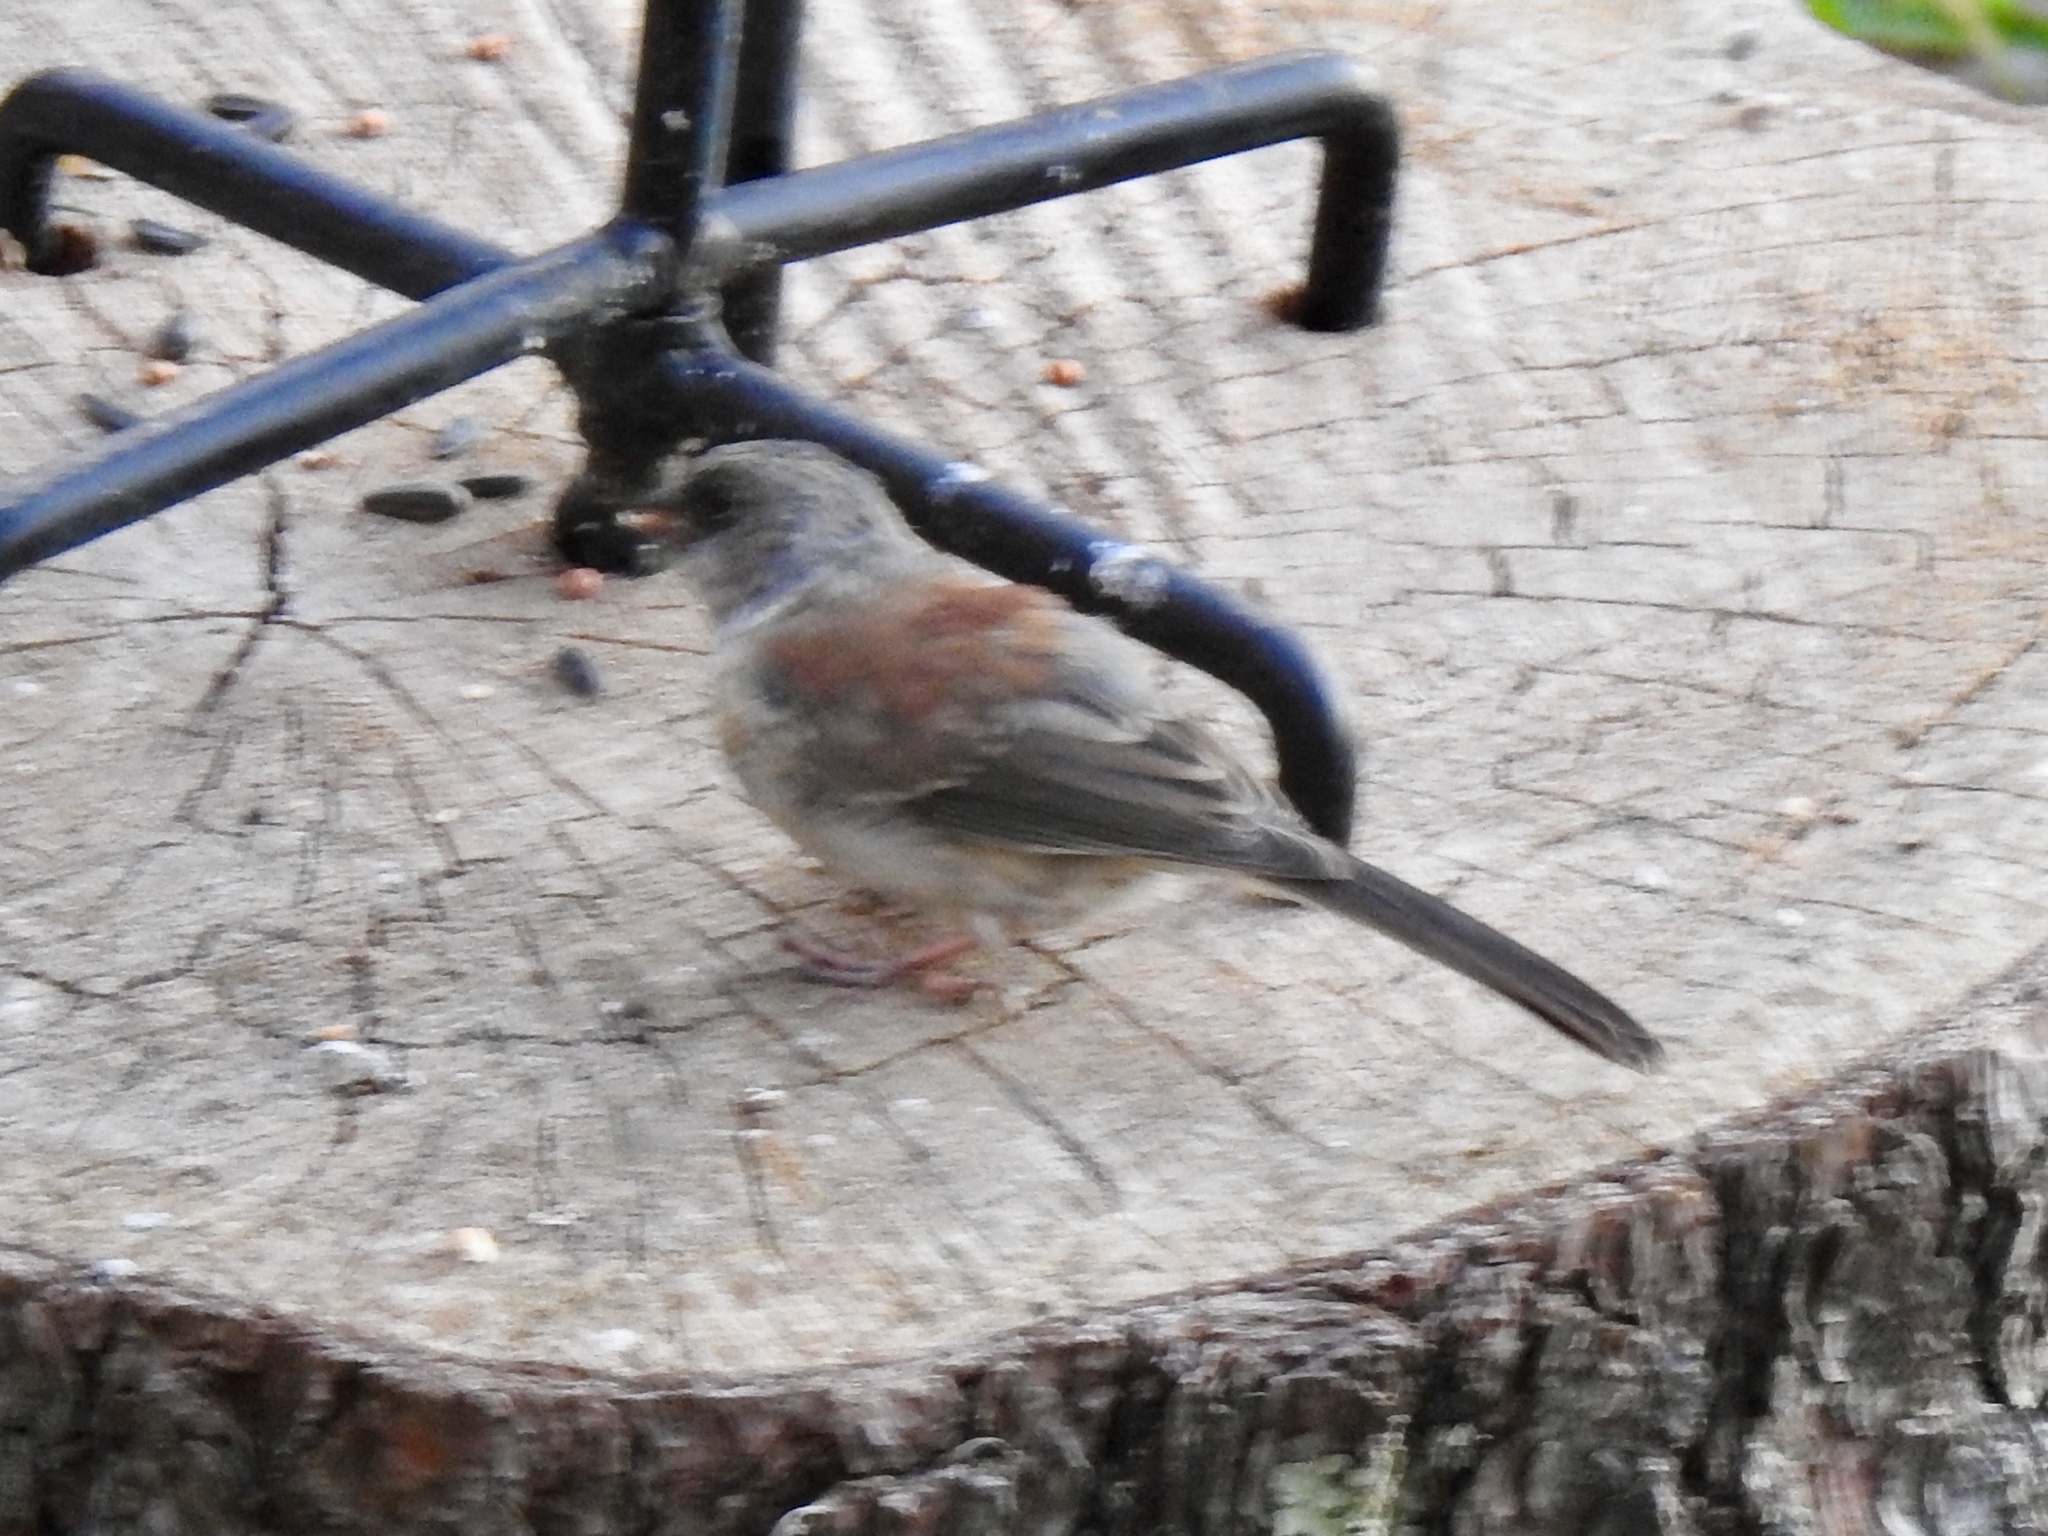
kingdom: Animalia
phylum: Chordata
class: Aves
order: Passeriformes
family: Passerellidae
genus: Junco
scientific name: Junco hyemalis
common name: Dark-eyed junco
